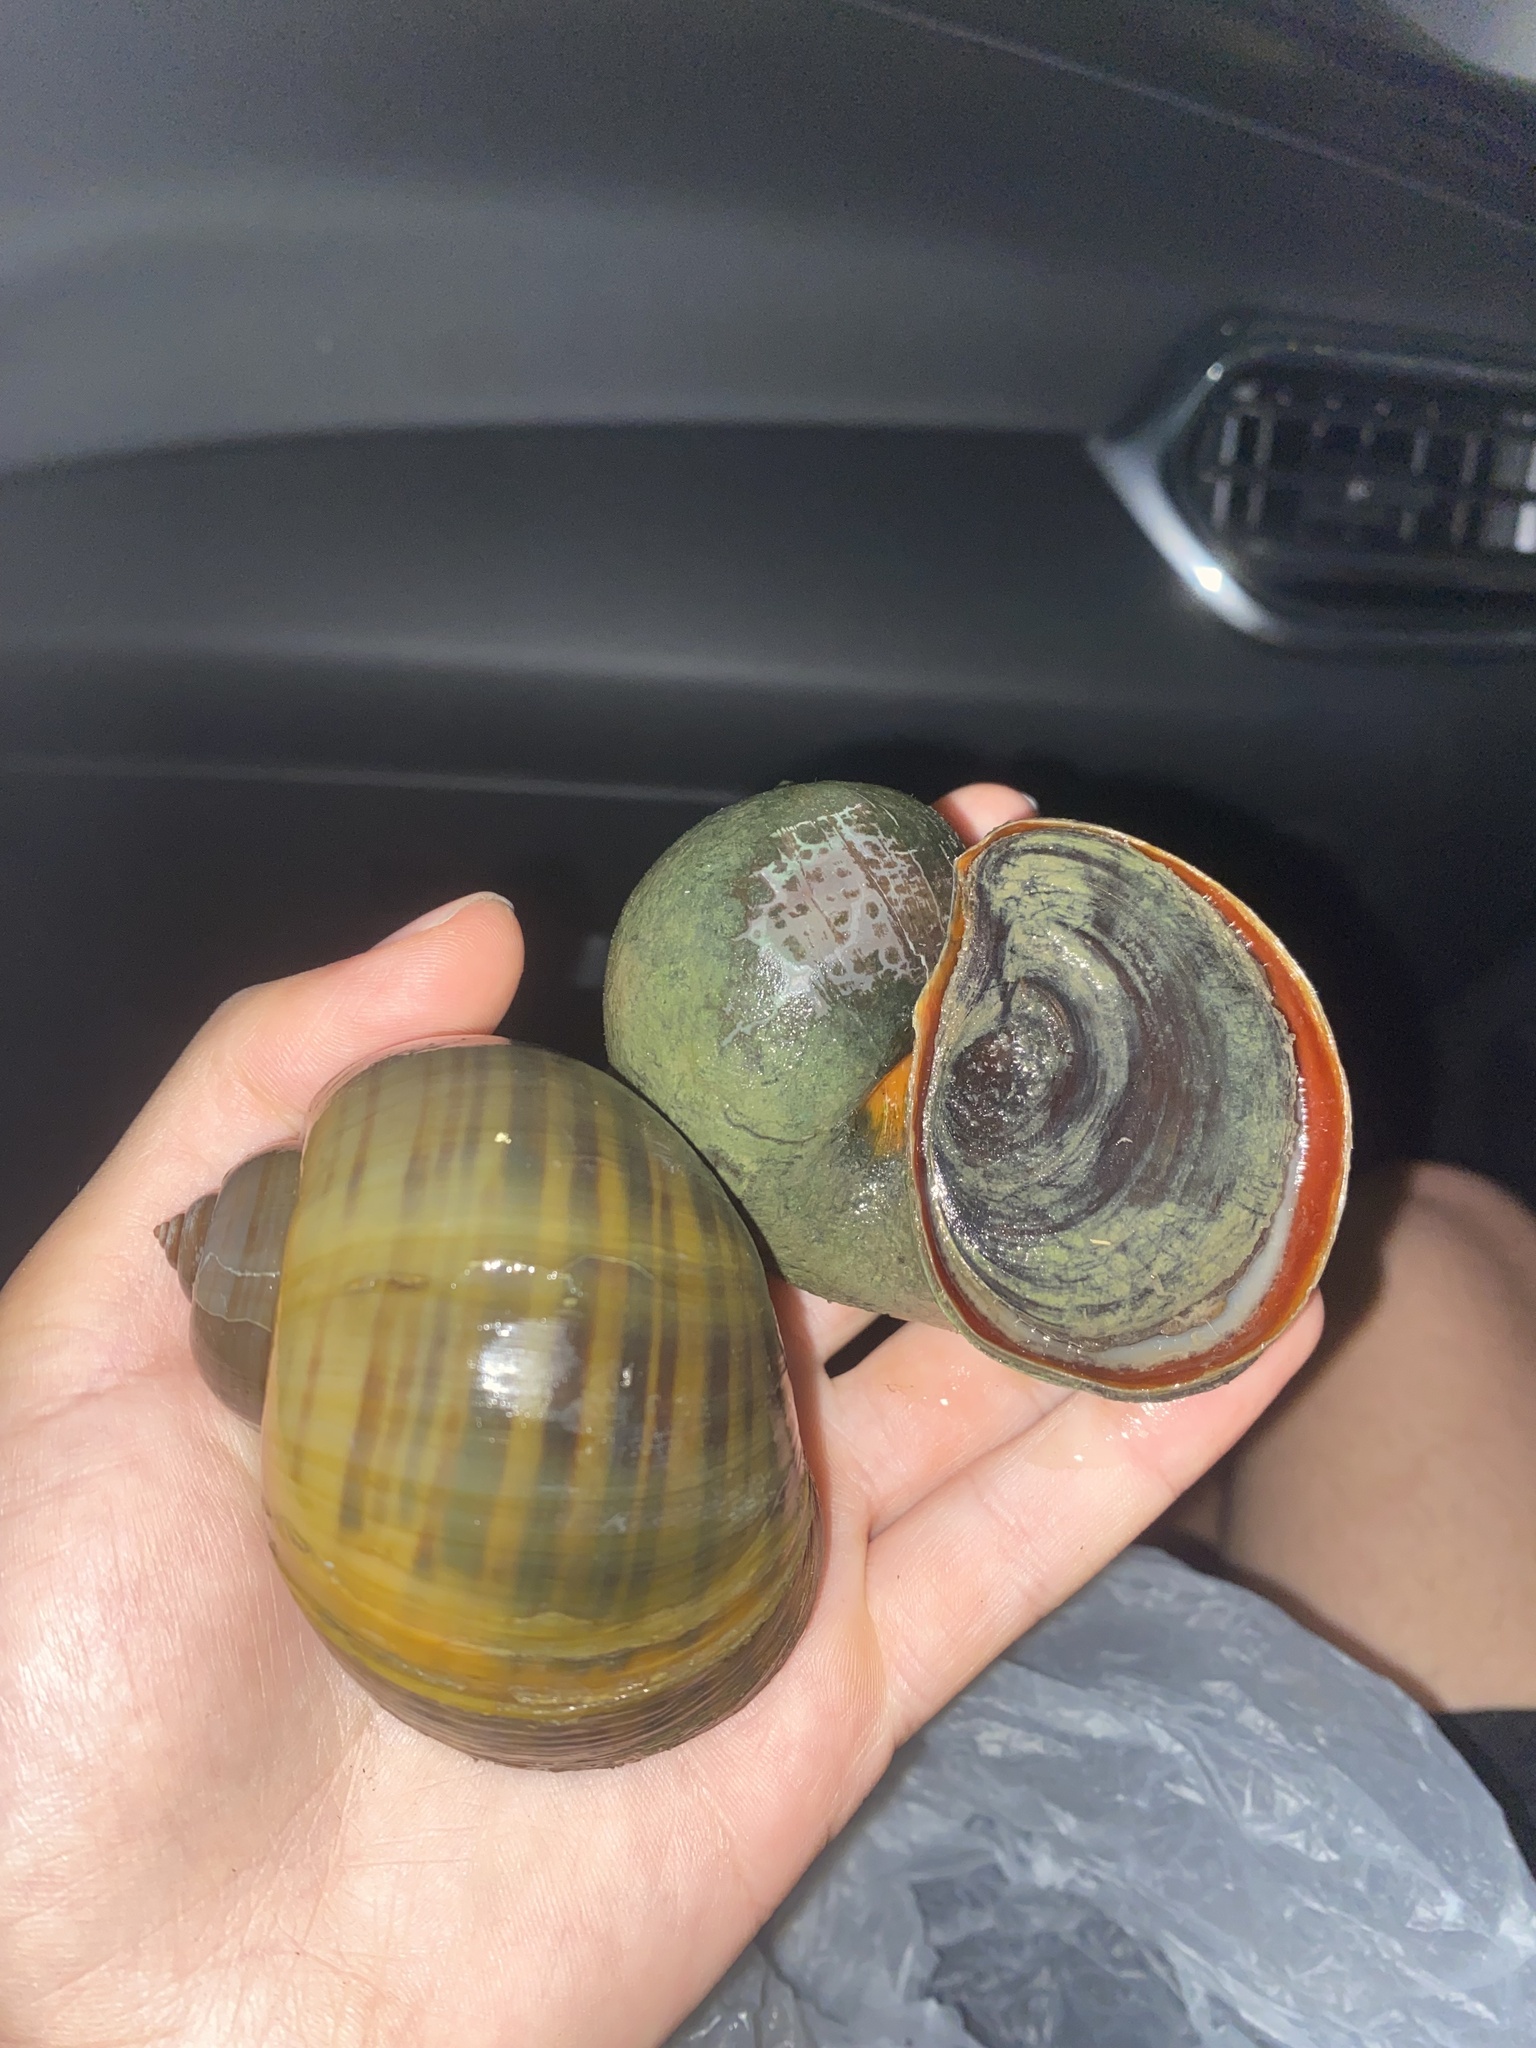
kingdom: Animalia
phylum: Mollusca
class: Gastropoda
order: Architaenioglossa
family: Ampullariidae
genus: Pomacea
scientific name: Pomacea maculata
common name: Giant applesnail
